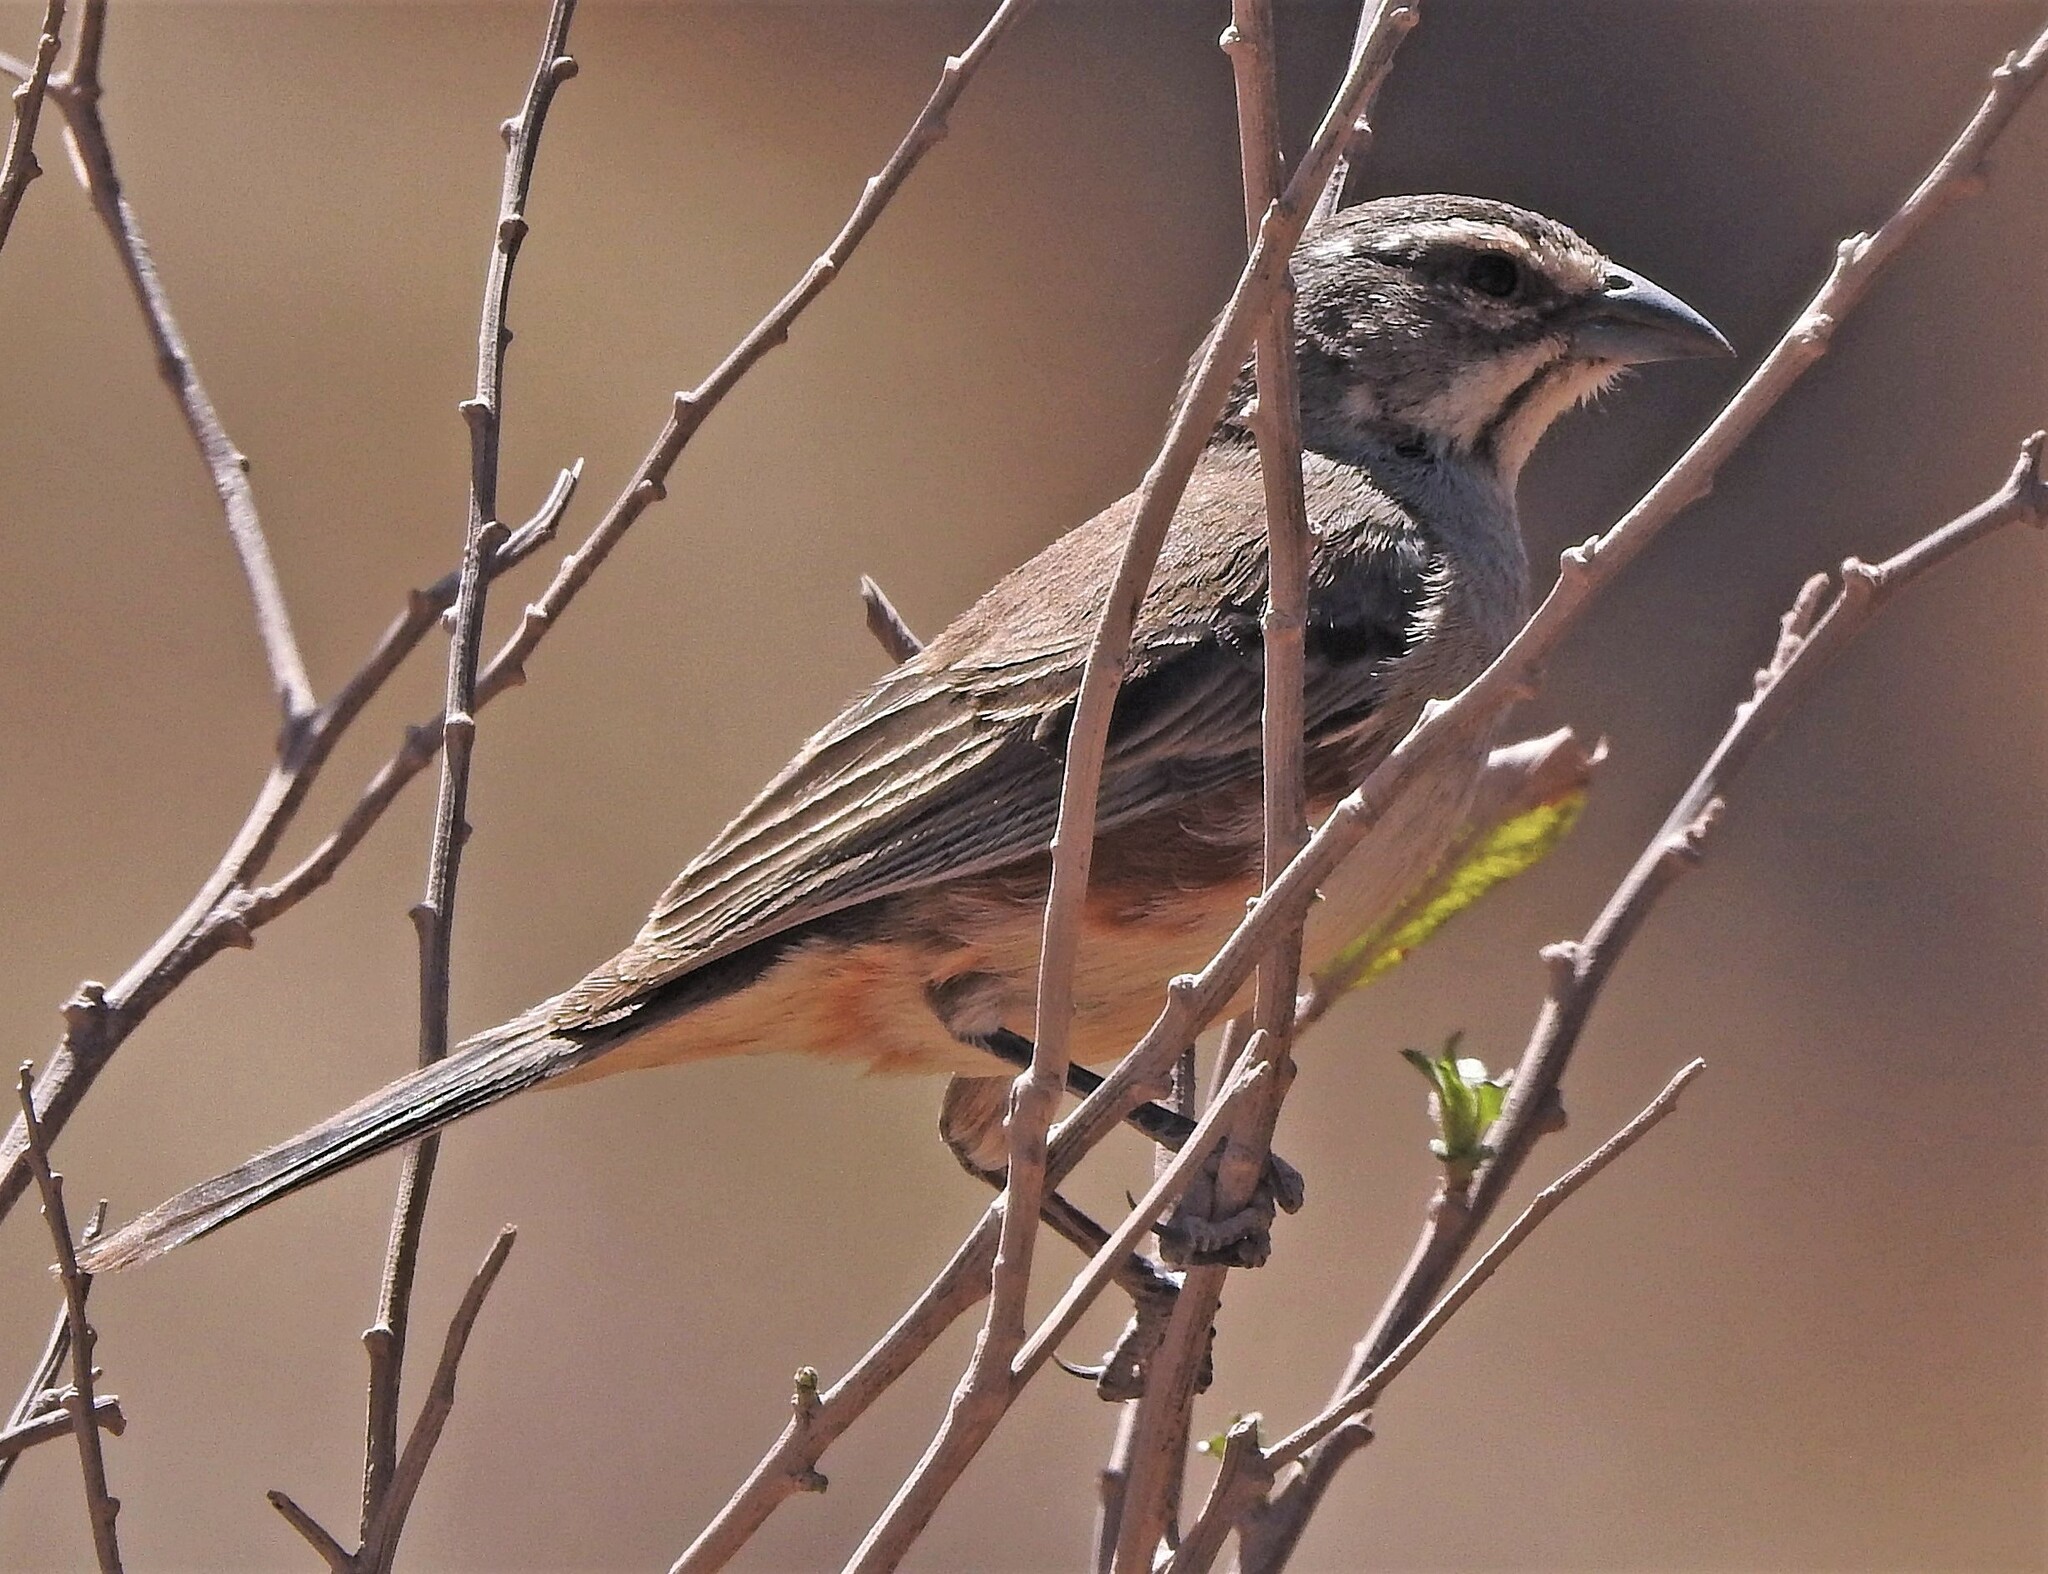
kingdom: Animalia
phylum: Chordata
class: Aves
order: Passeriformes
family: Thraupidae
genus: Poospizopsis
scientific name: Poospizopsis hypocondria
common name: Rufous-sided warbling-finch
